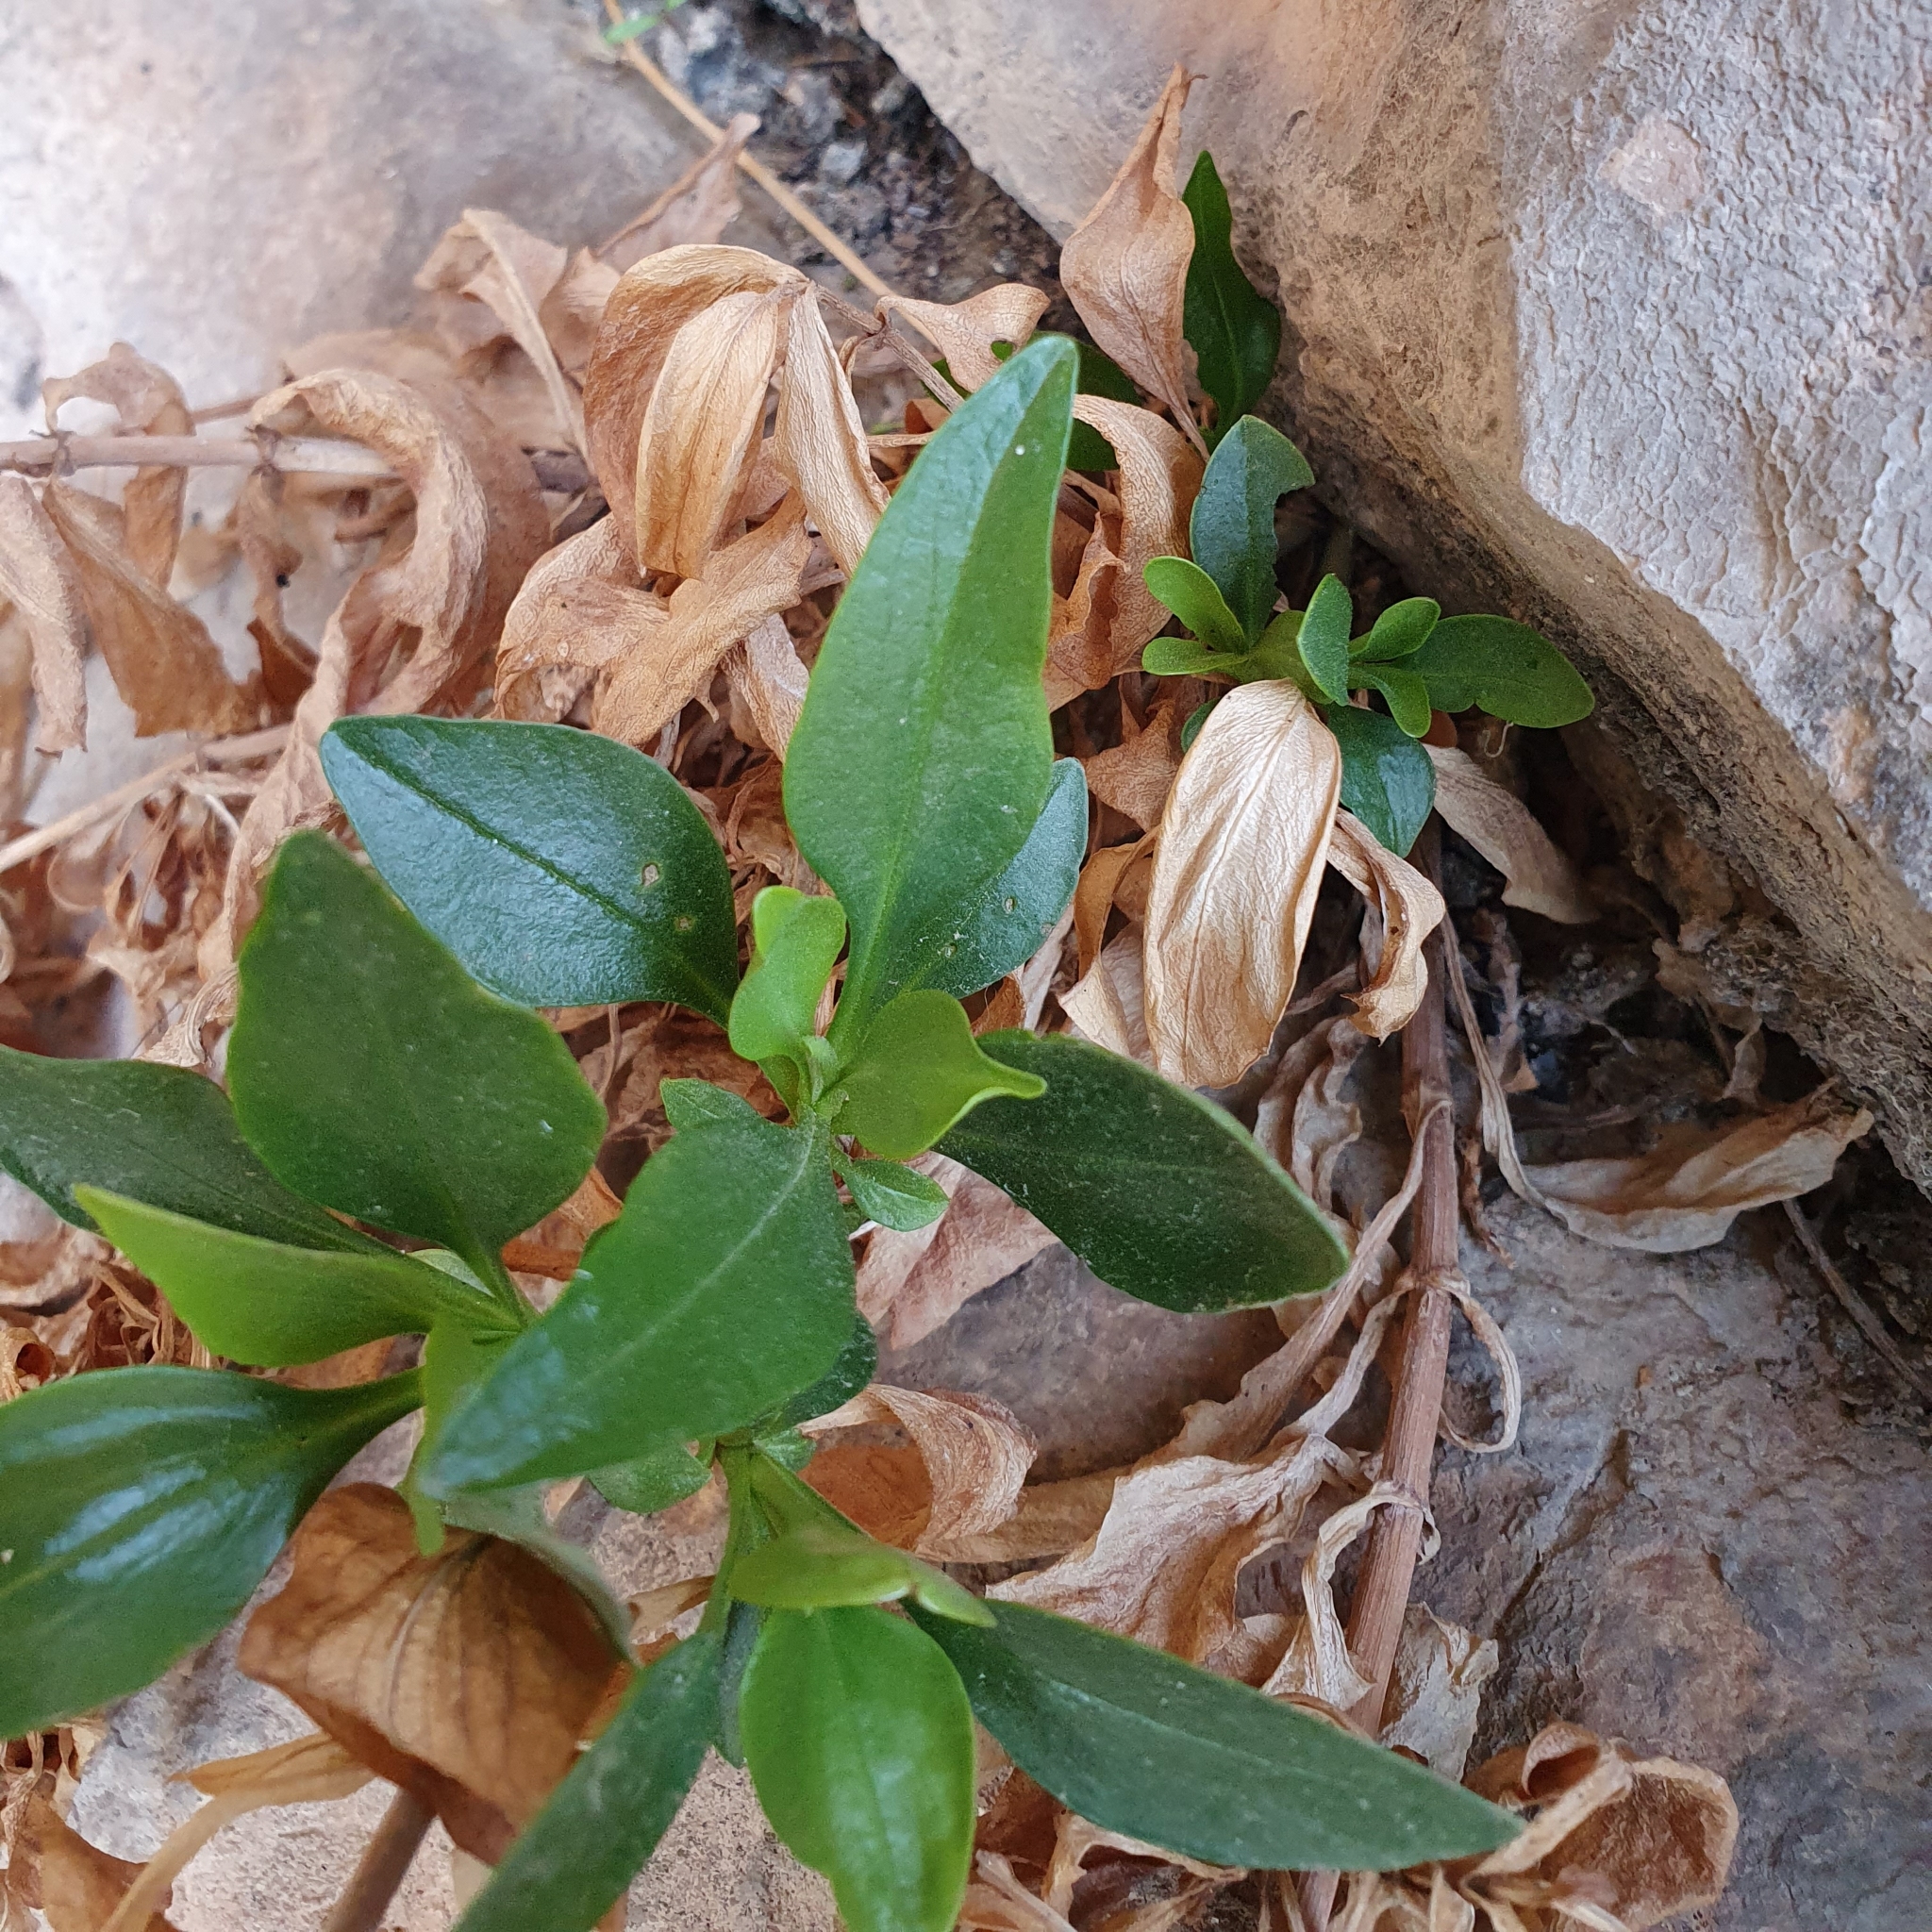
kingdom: Plantae
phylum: Tracheophyta
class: Magnoliopsida
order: Dipsacales
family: Caprifoliaceae
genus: Centranthus
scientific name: Centranthus ruber
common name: Red valerian
